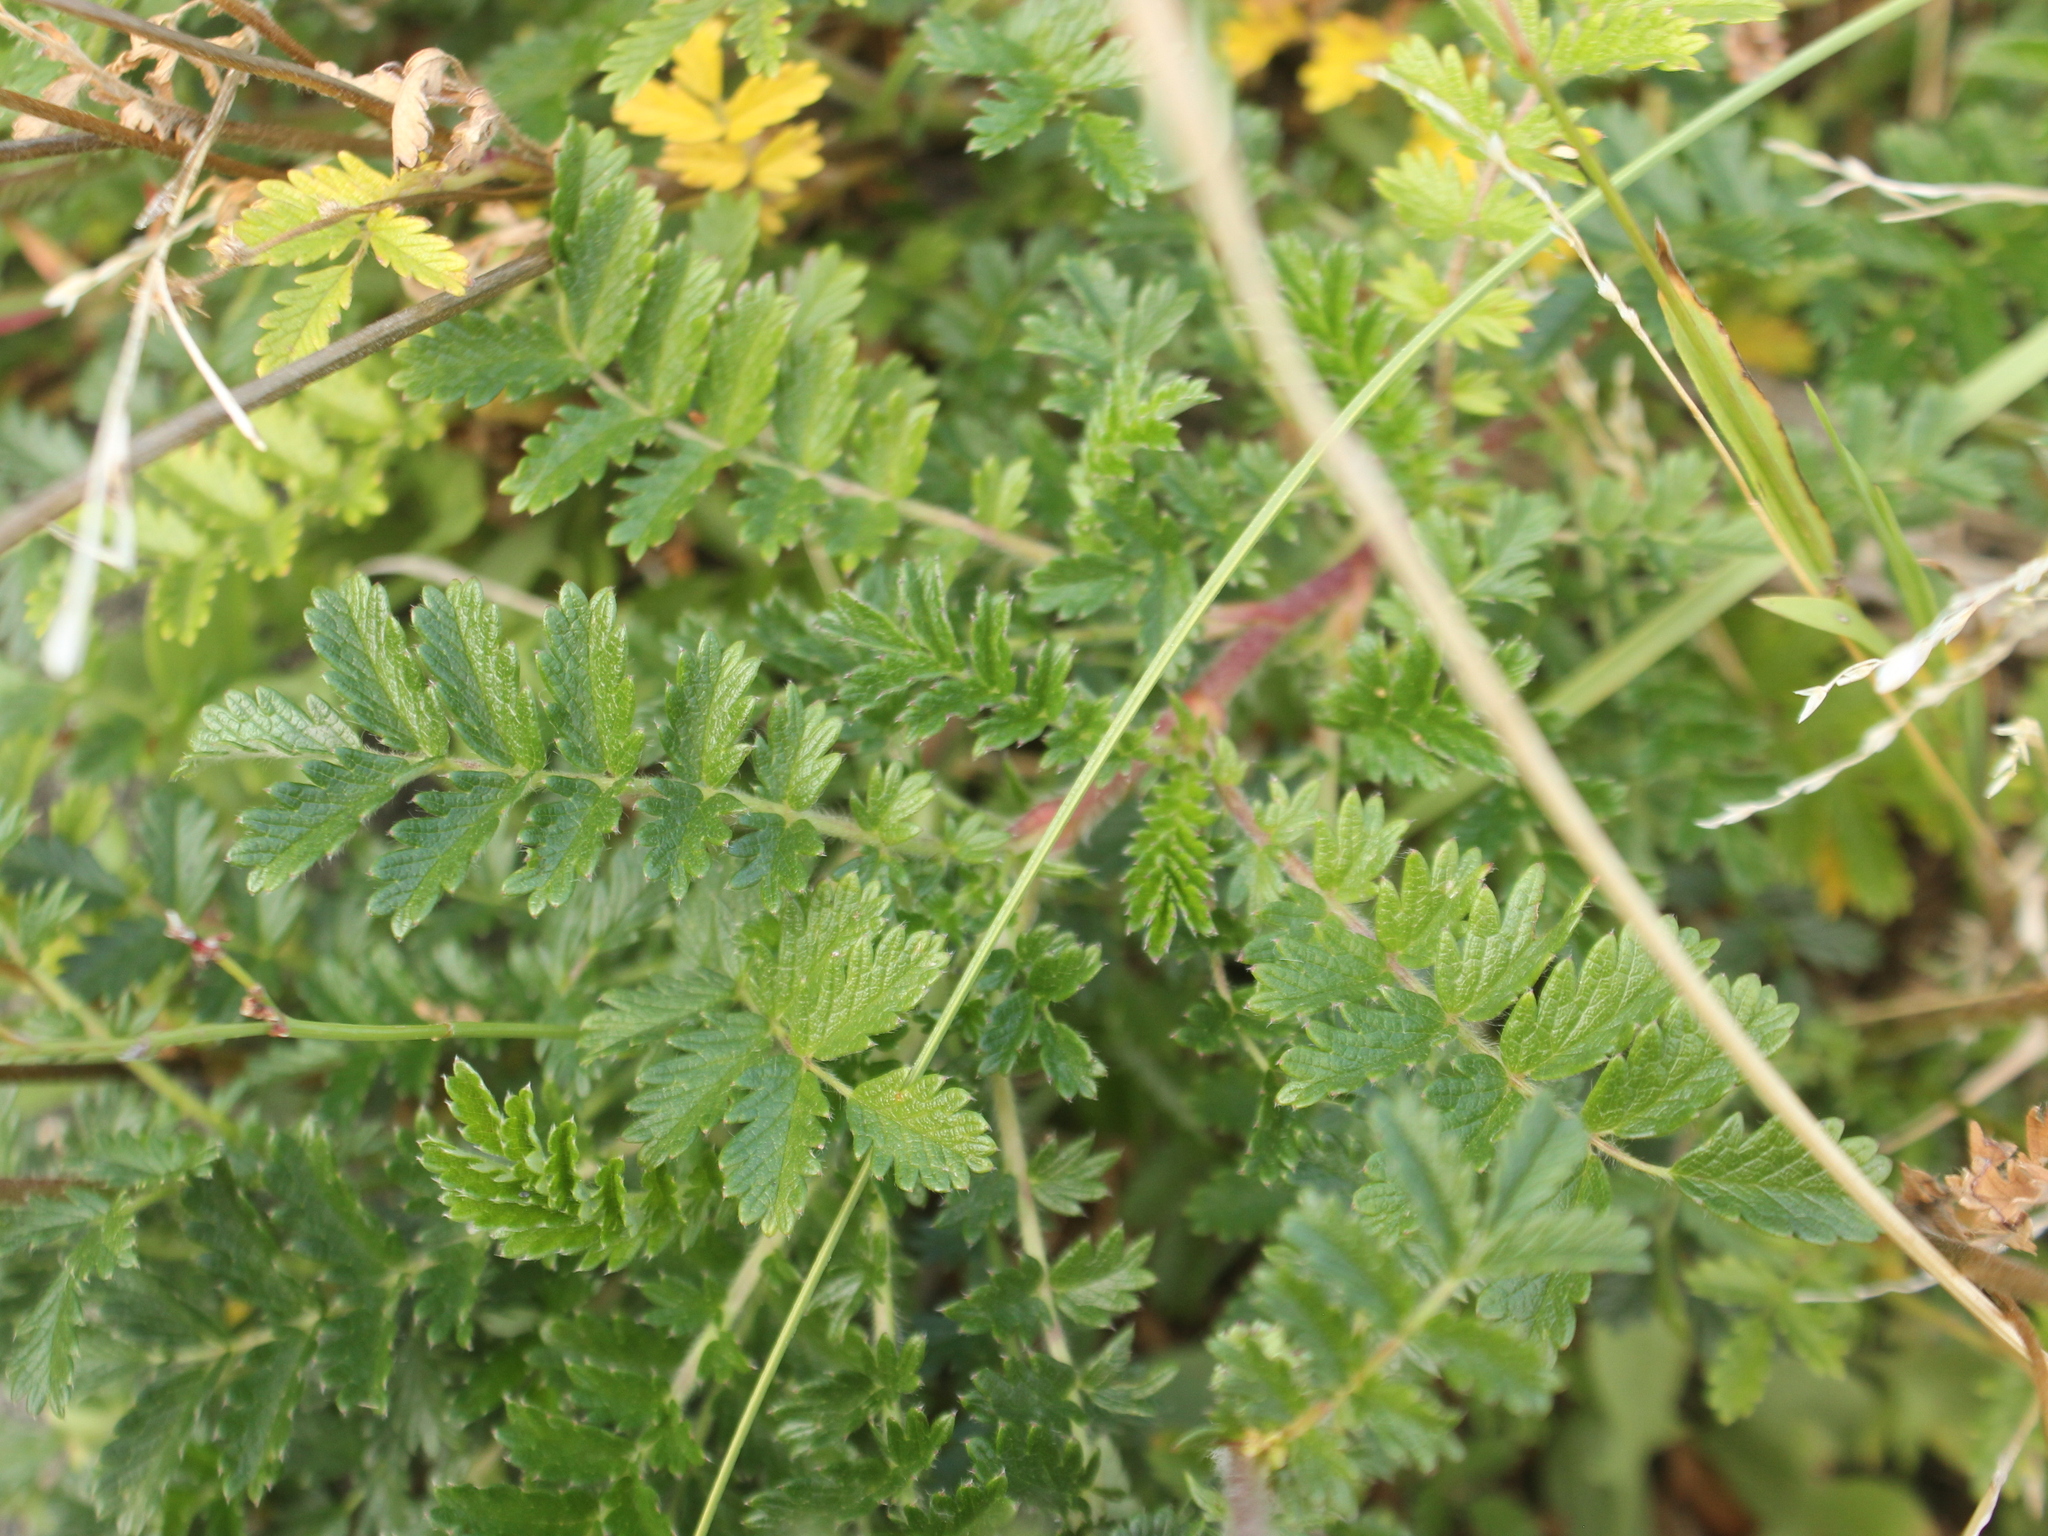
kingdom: Plantae
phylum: Tracheophyta
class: Magnoliopsida
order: Rosales
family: Rosaceae
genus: Acaena
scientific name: Acaena
